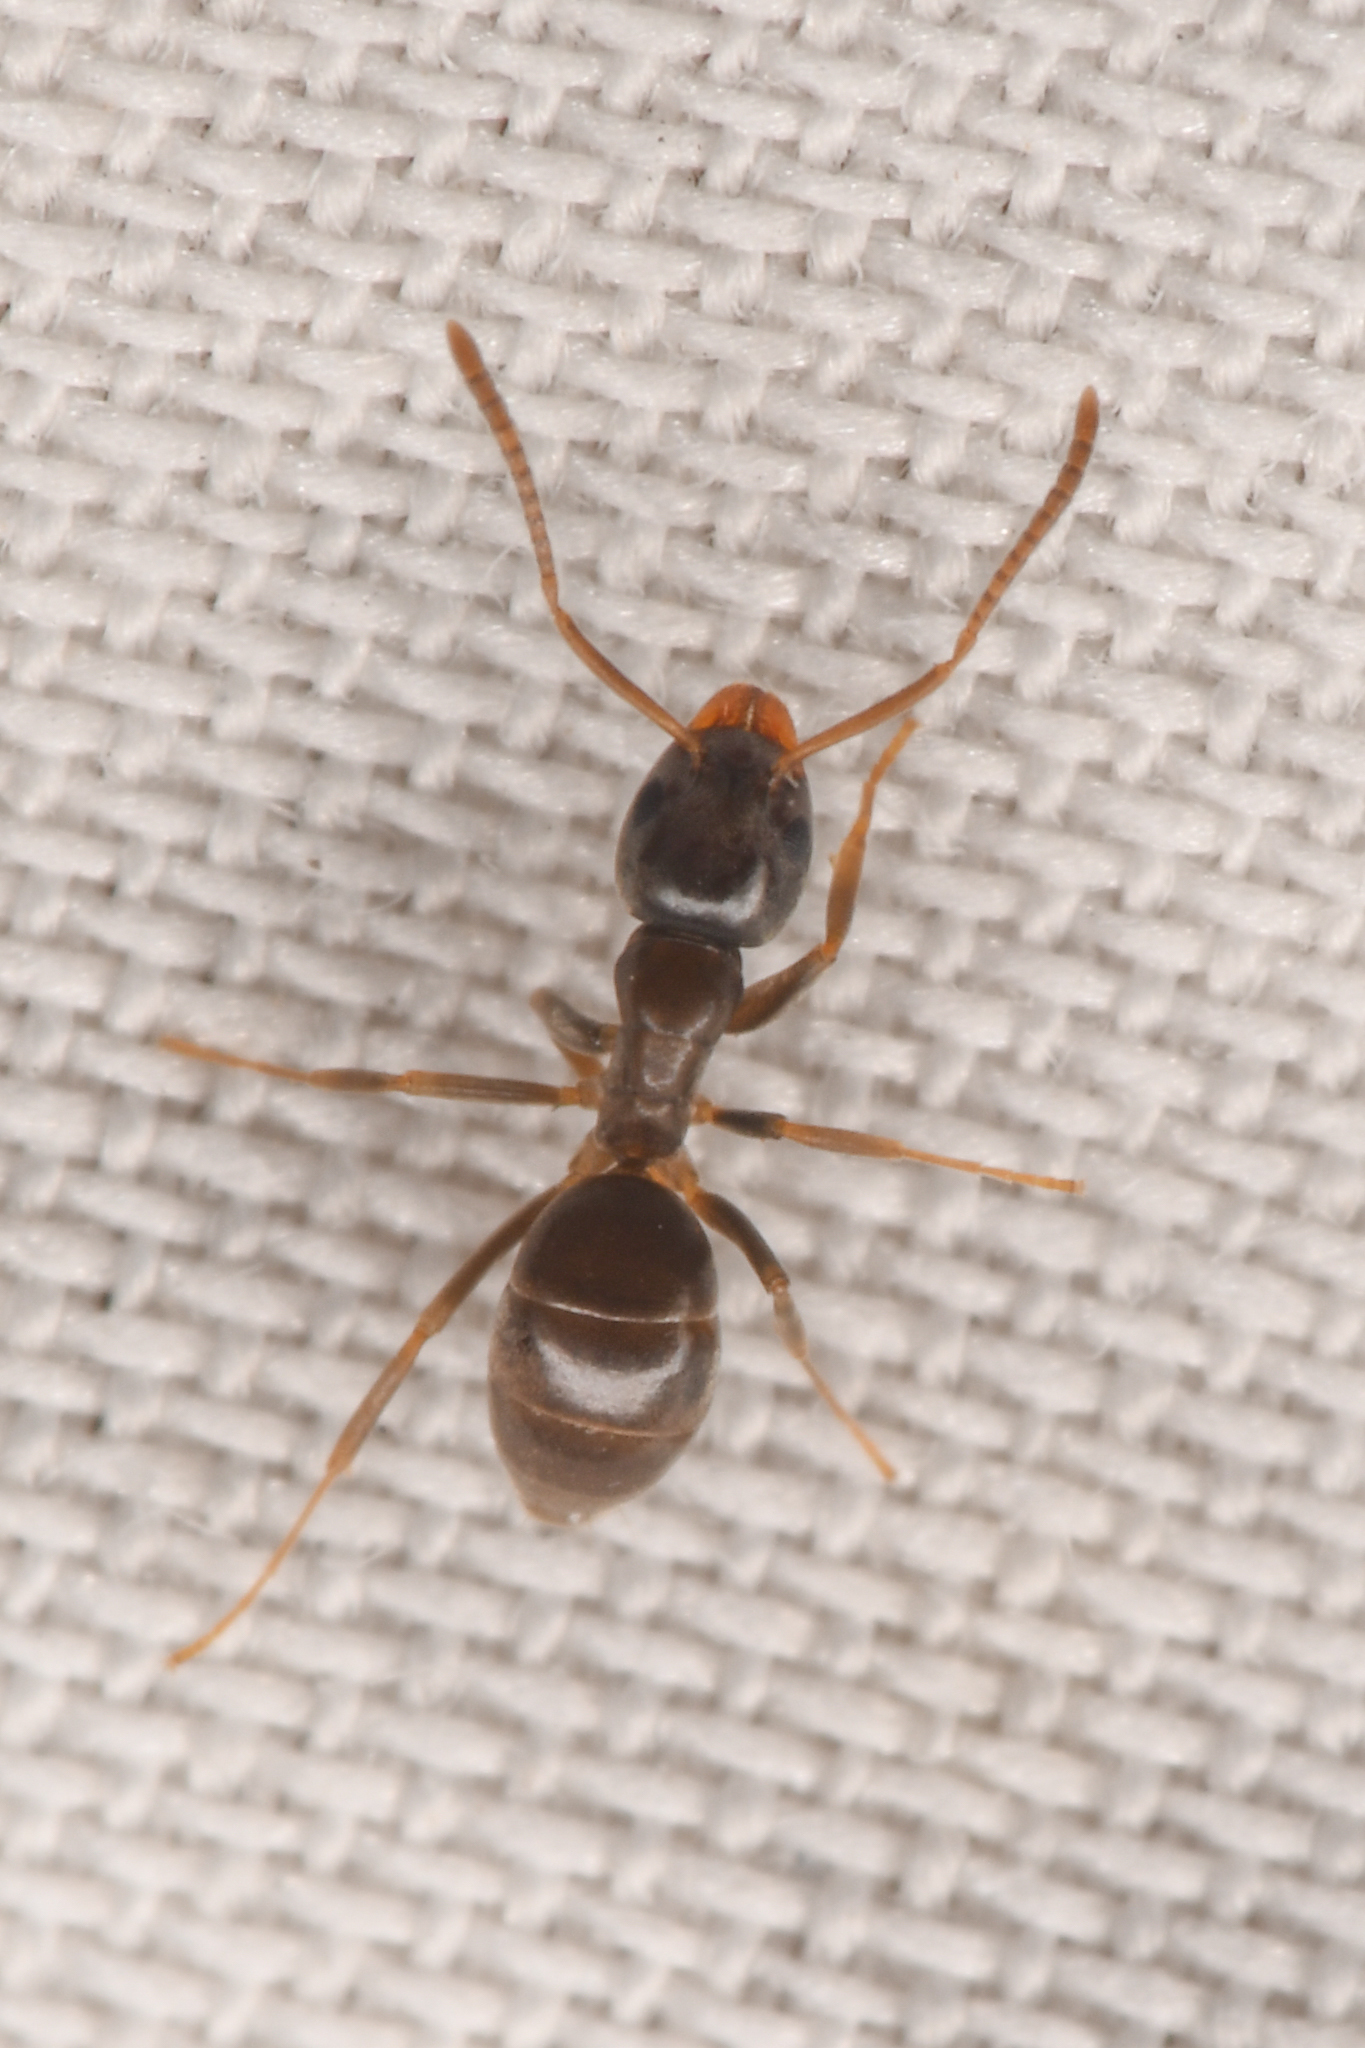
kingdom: Animalia
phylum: Arthropoda
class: Insecta
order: Hymenoptera
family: Formicidae
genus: Tapinoma
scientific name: Tapinoma sessile
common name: Odorous house ant
